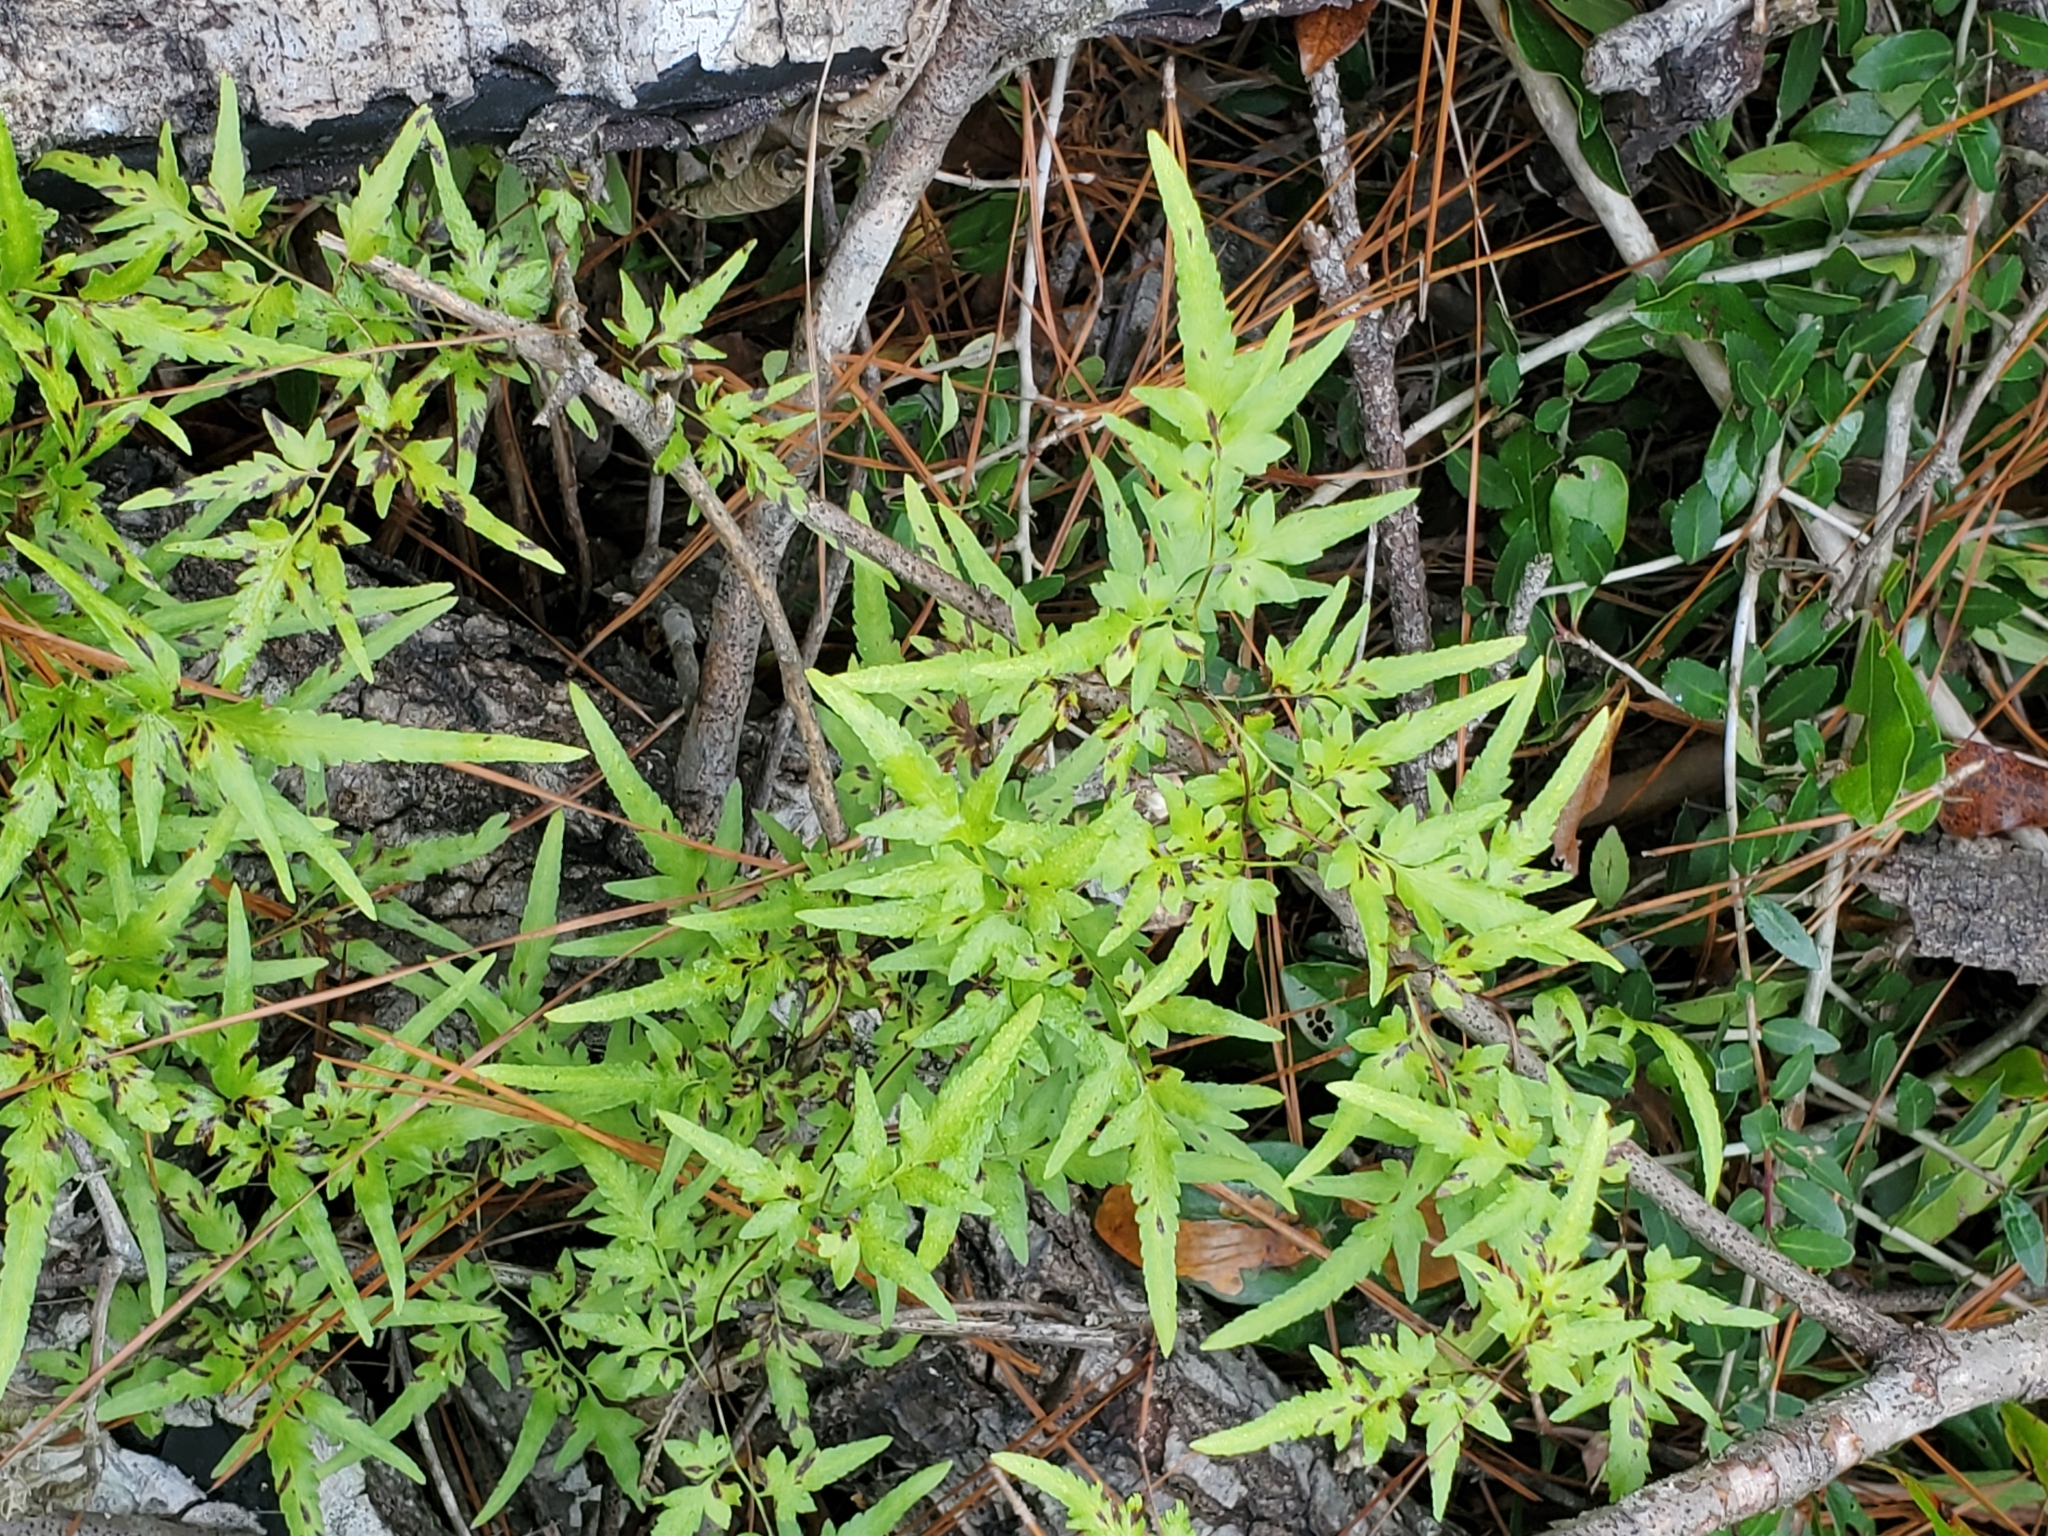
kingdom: Plantae
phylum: Tracheophyta
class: Polypodiopsida
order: Schizaeales
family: Lygodiaceae
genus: Lygodium
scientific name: Lygodium japonicum
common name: Japanese climbing fern
